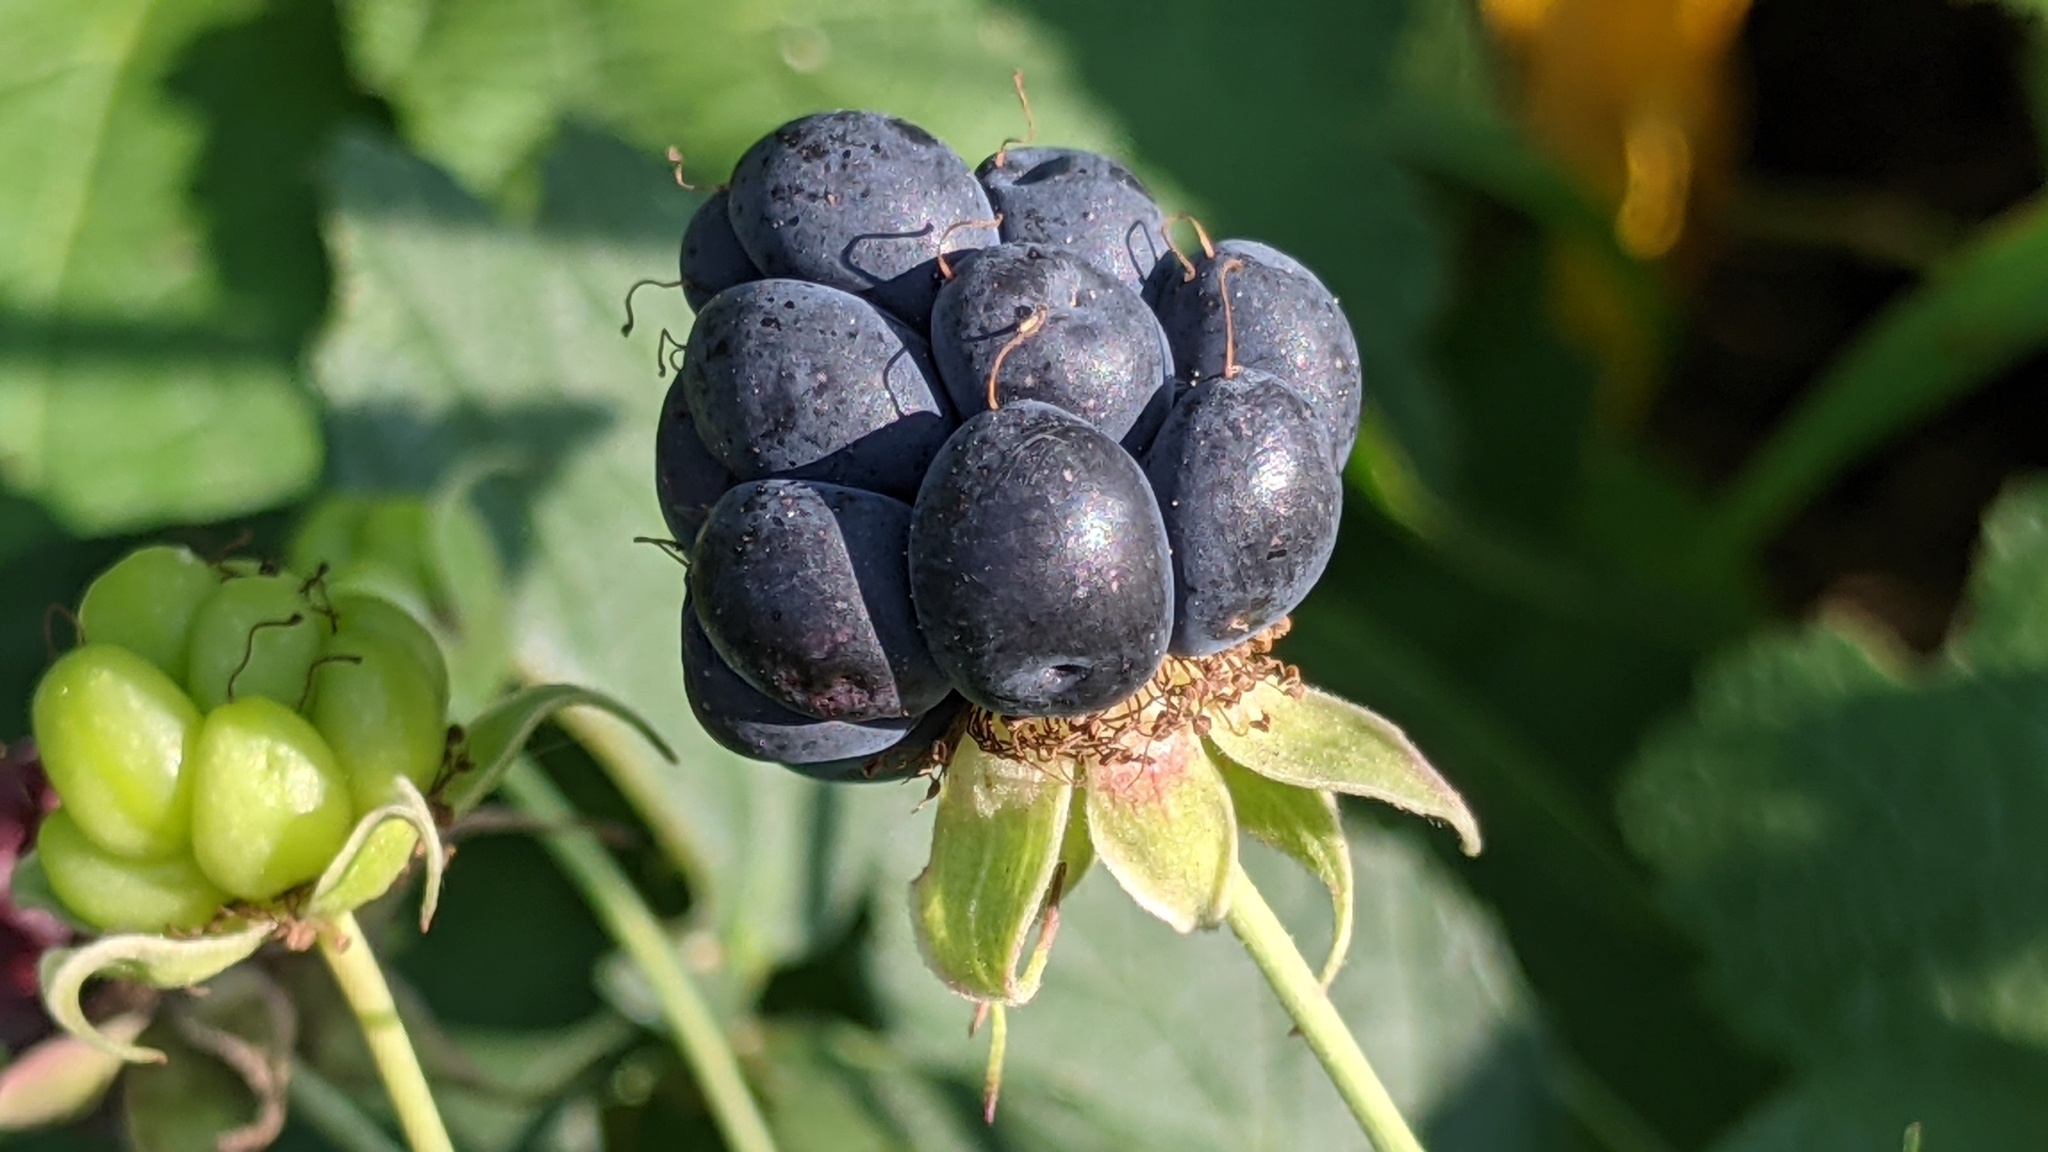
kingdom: Plantae
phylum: Tracheophyta
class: Magnoliopsida
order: Rosales
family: Rosaceae
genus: Rubus
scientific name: Rubus caesius
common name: Dewberry
